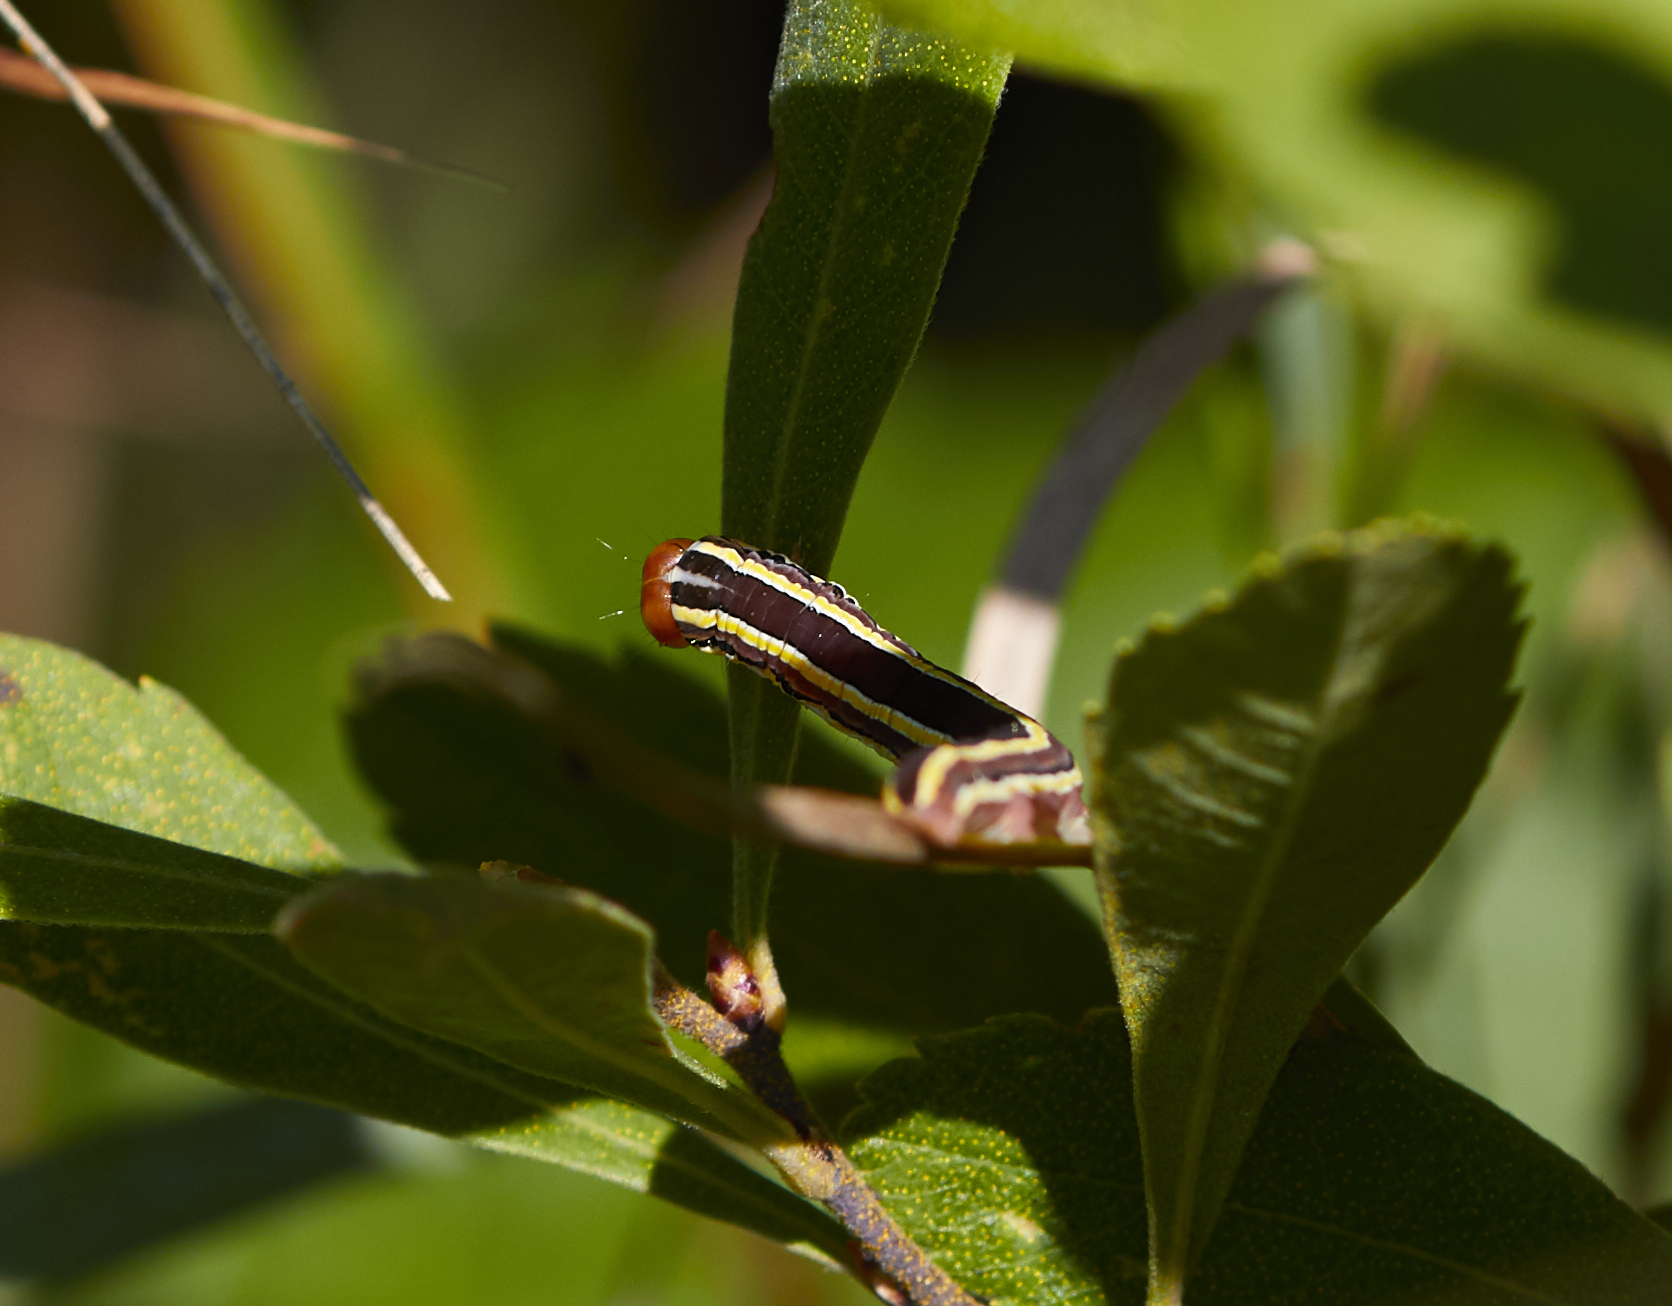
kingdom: Animalia
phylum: Arthropoda
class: Insecta
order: Lepidoptera
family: Noctuidae
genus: Trichordestra
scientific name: Trichordestra legitima
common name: Striped garden caterpillar
